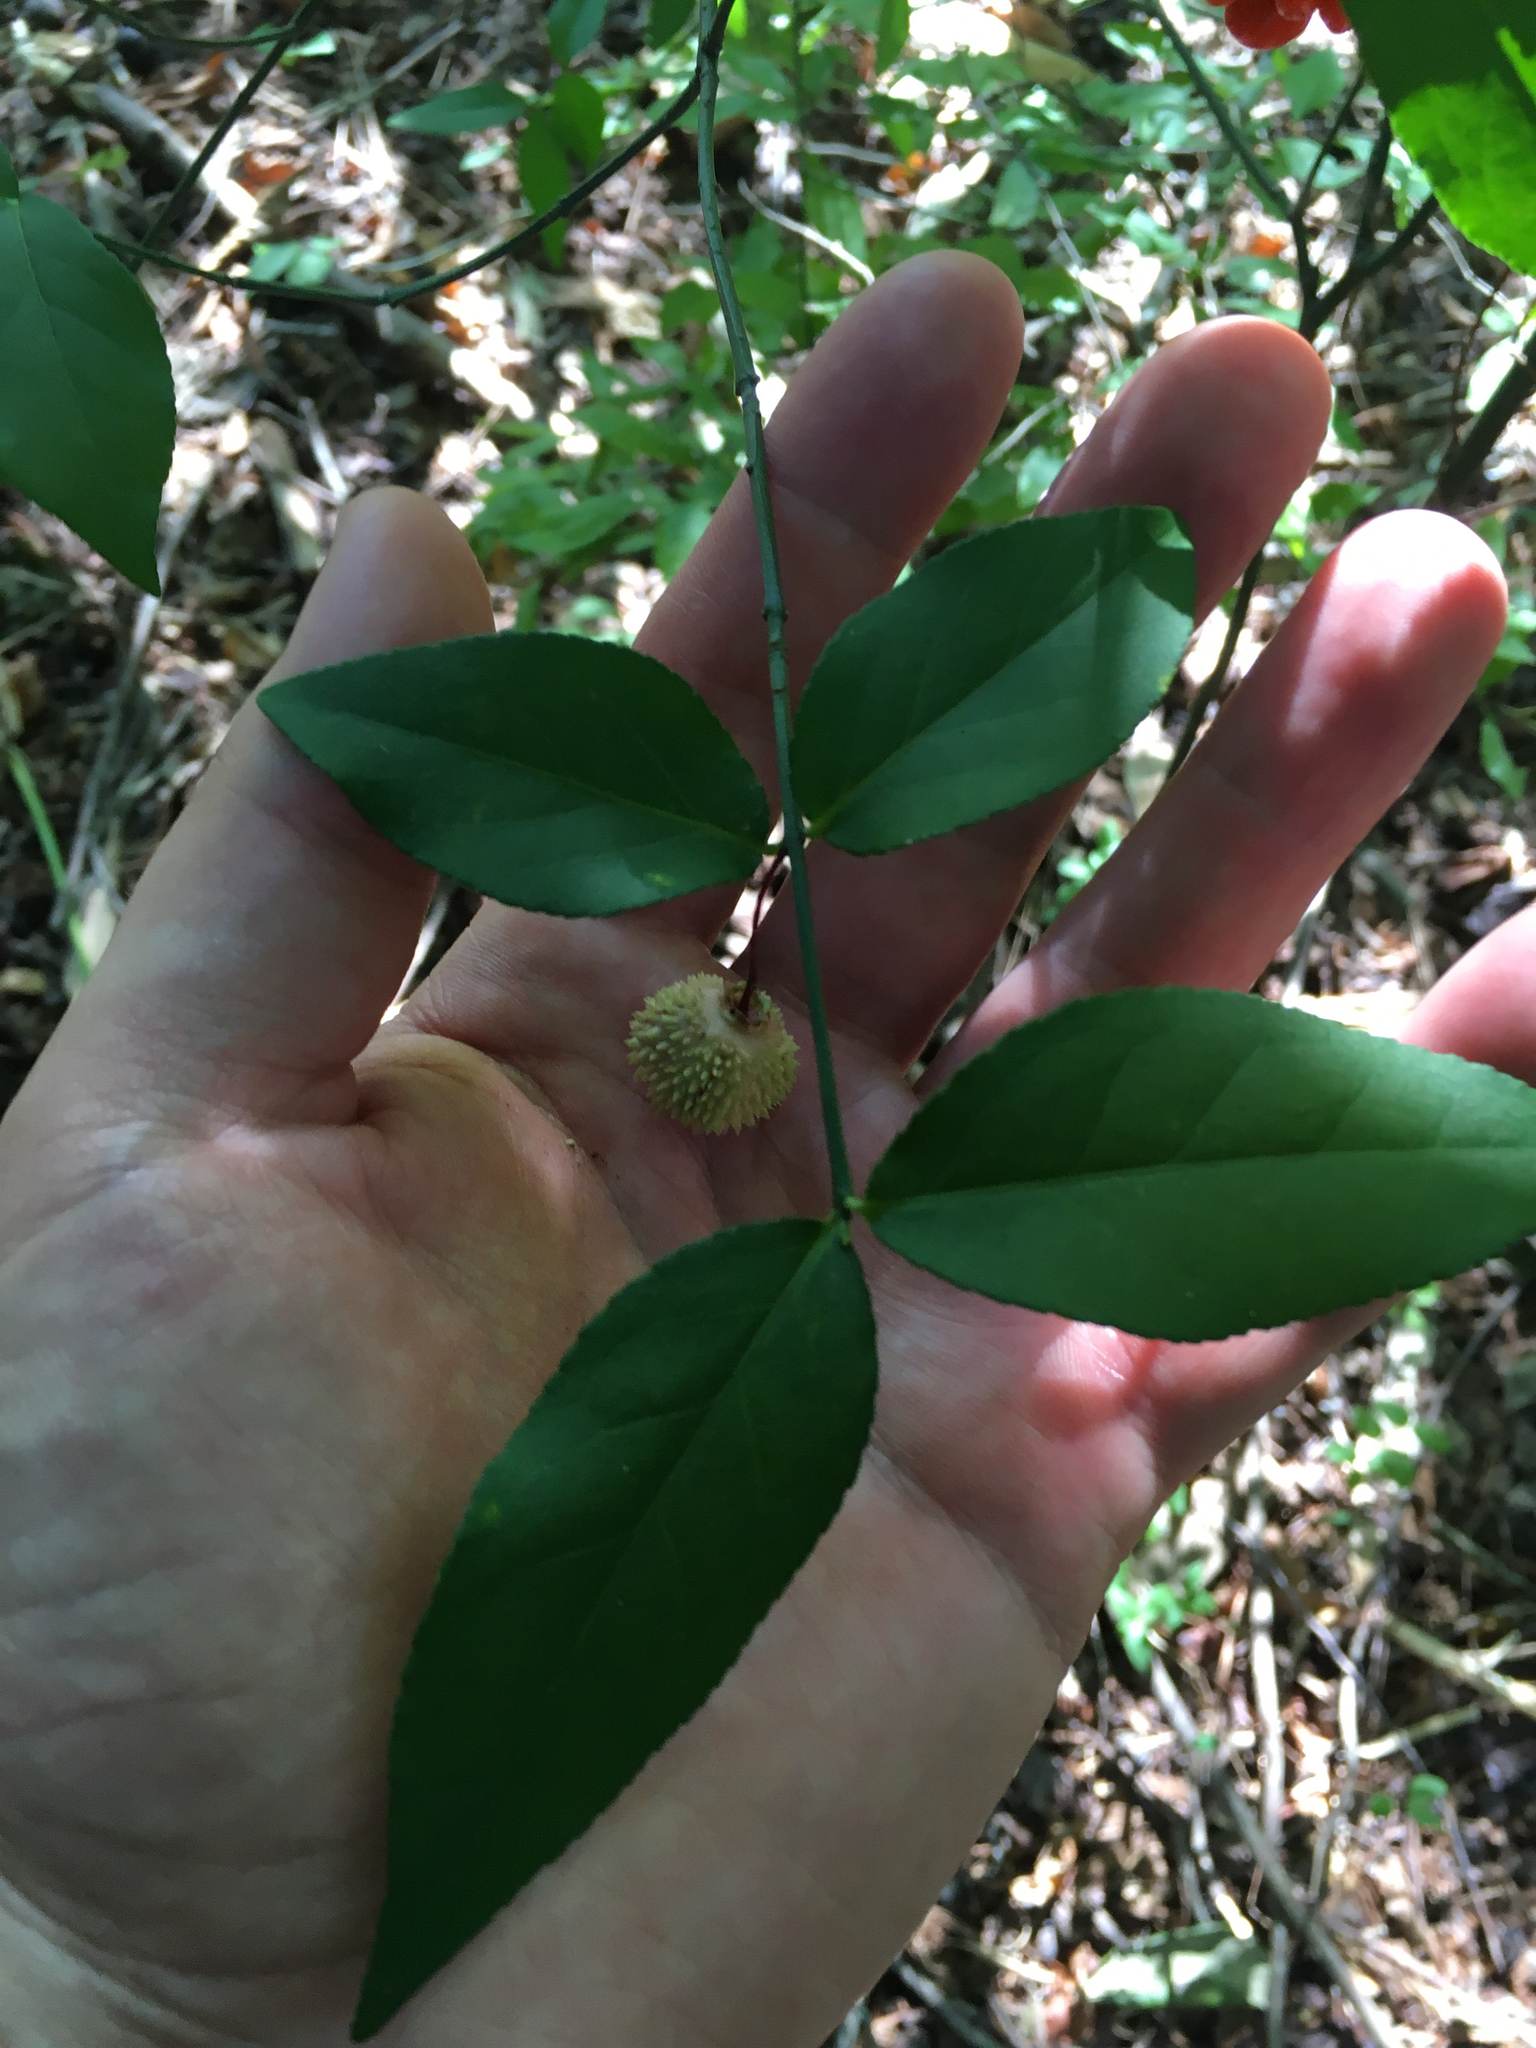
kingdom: Plantae
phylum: Tracheophyta
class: Magnoliopsida
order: Celastrales
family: Celastraceae
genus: Euonymus
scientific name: Euonymus americanus
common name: Bursting-heart
